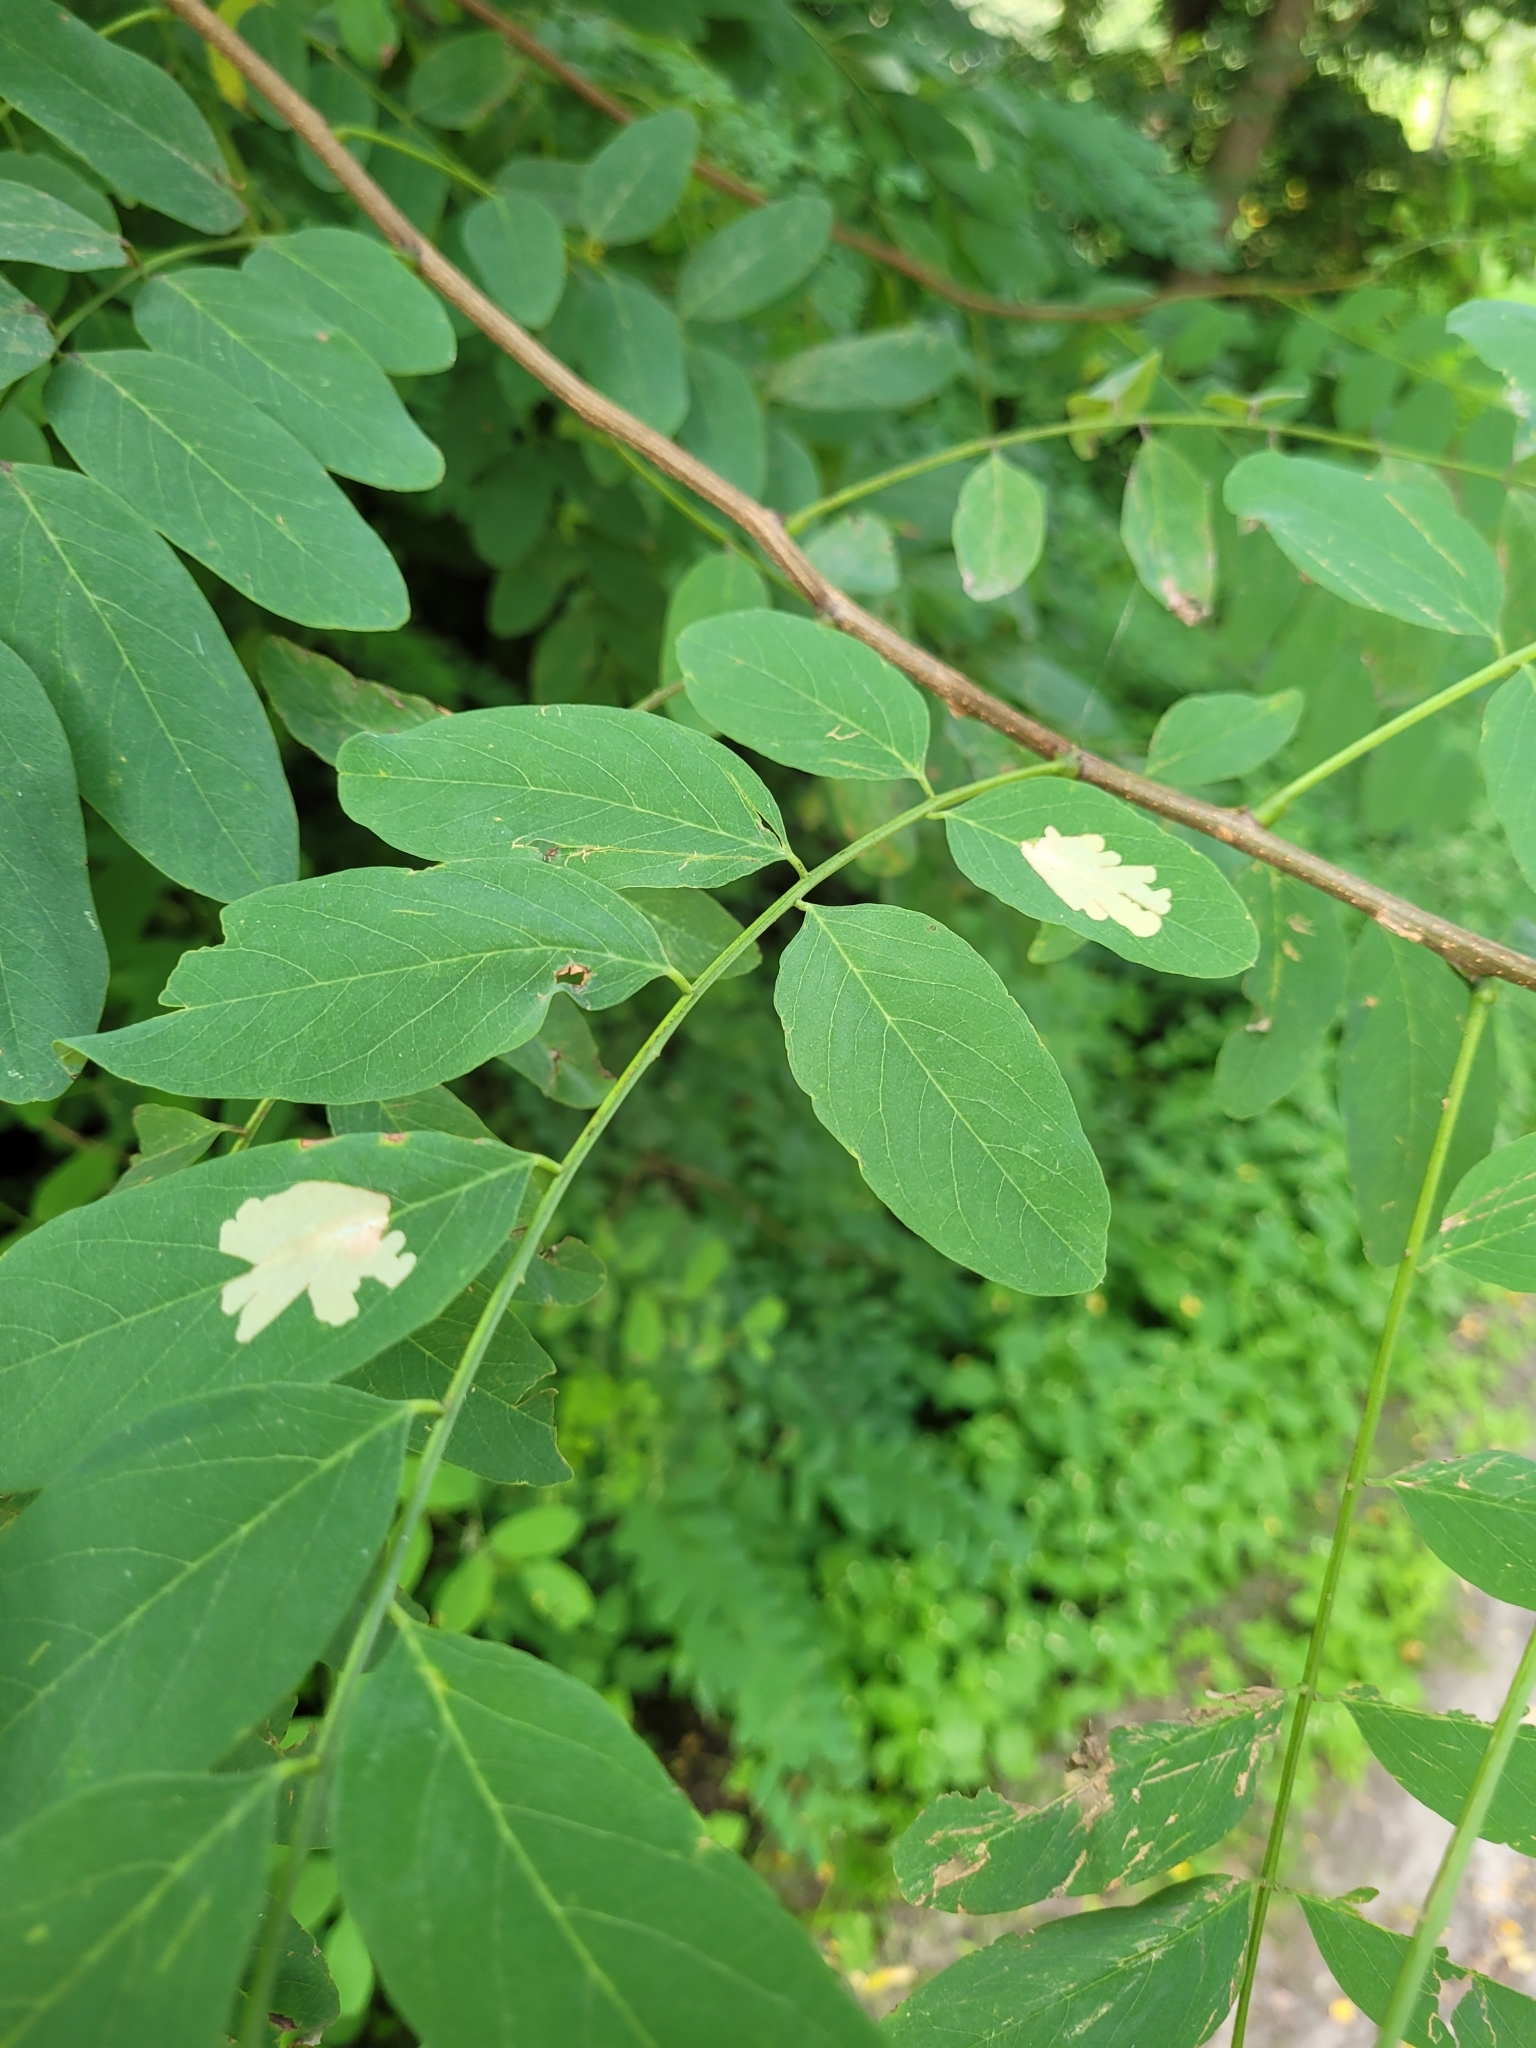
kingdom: Animalia
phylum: Arthropoda
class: Insecta
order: Lepidoptera
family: Gracillariidae
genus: Parectopa
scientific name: Parectopa robiniella
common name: Locust digitate leafminer
